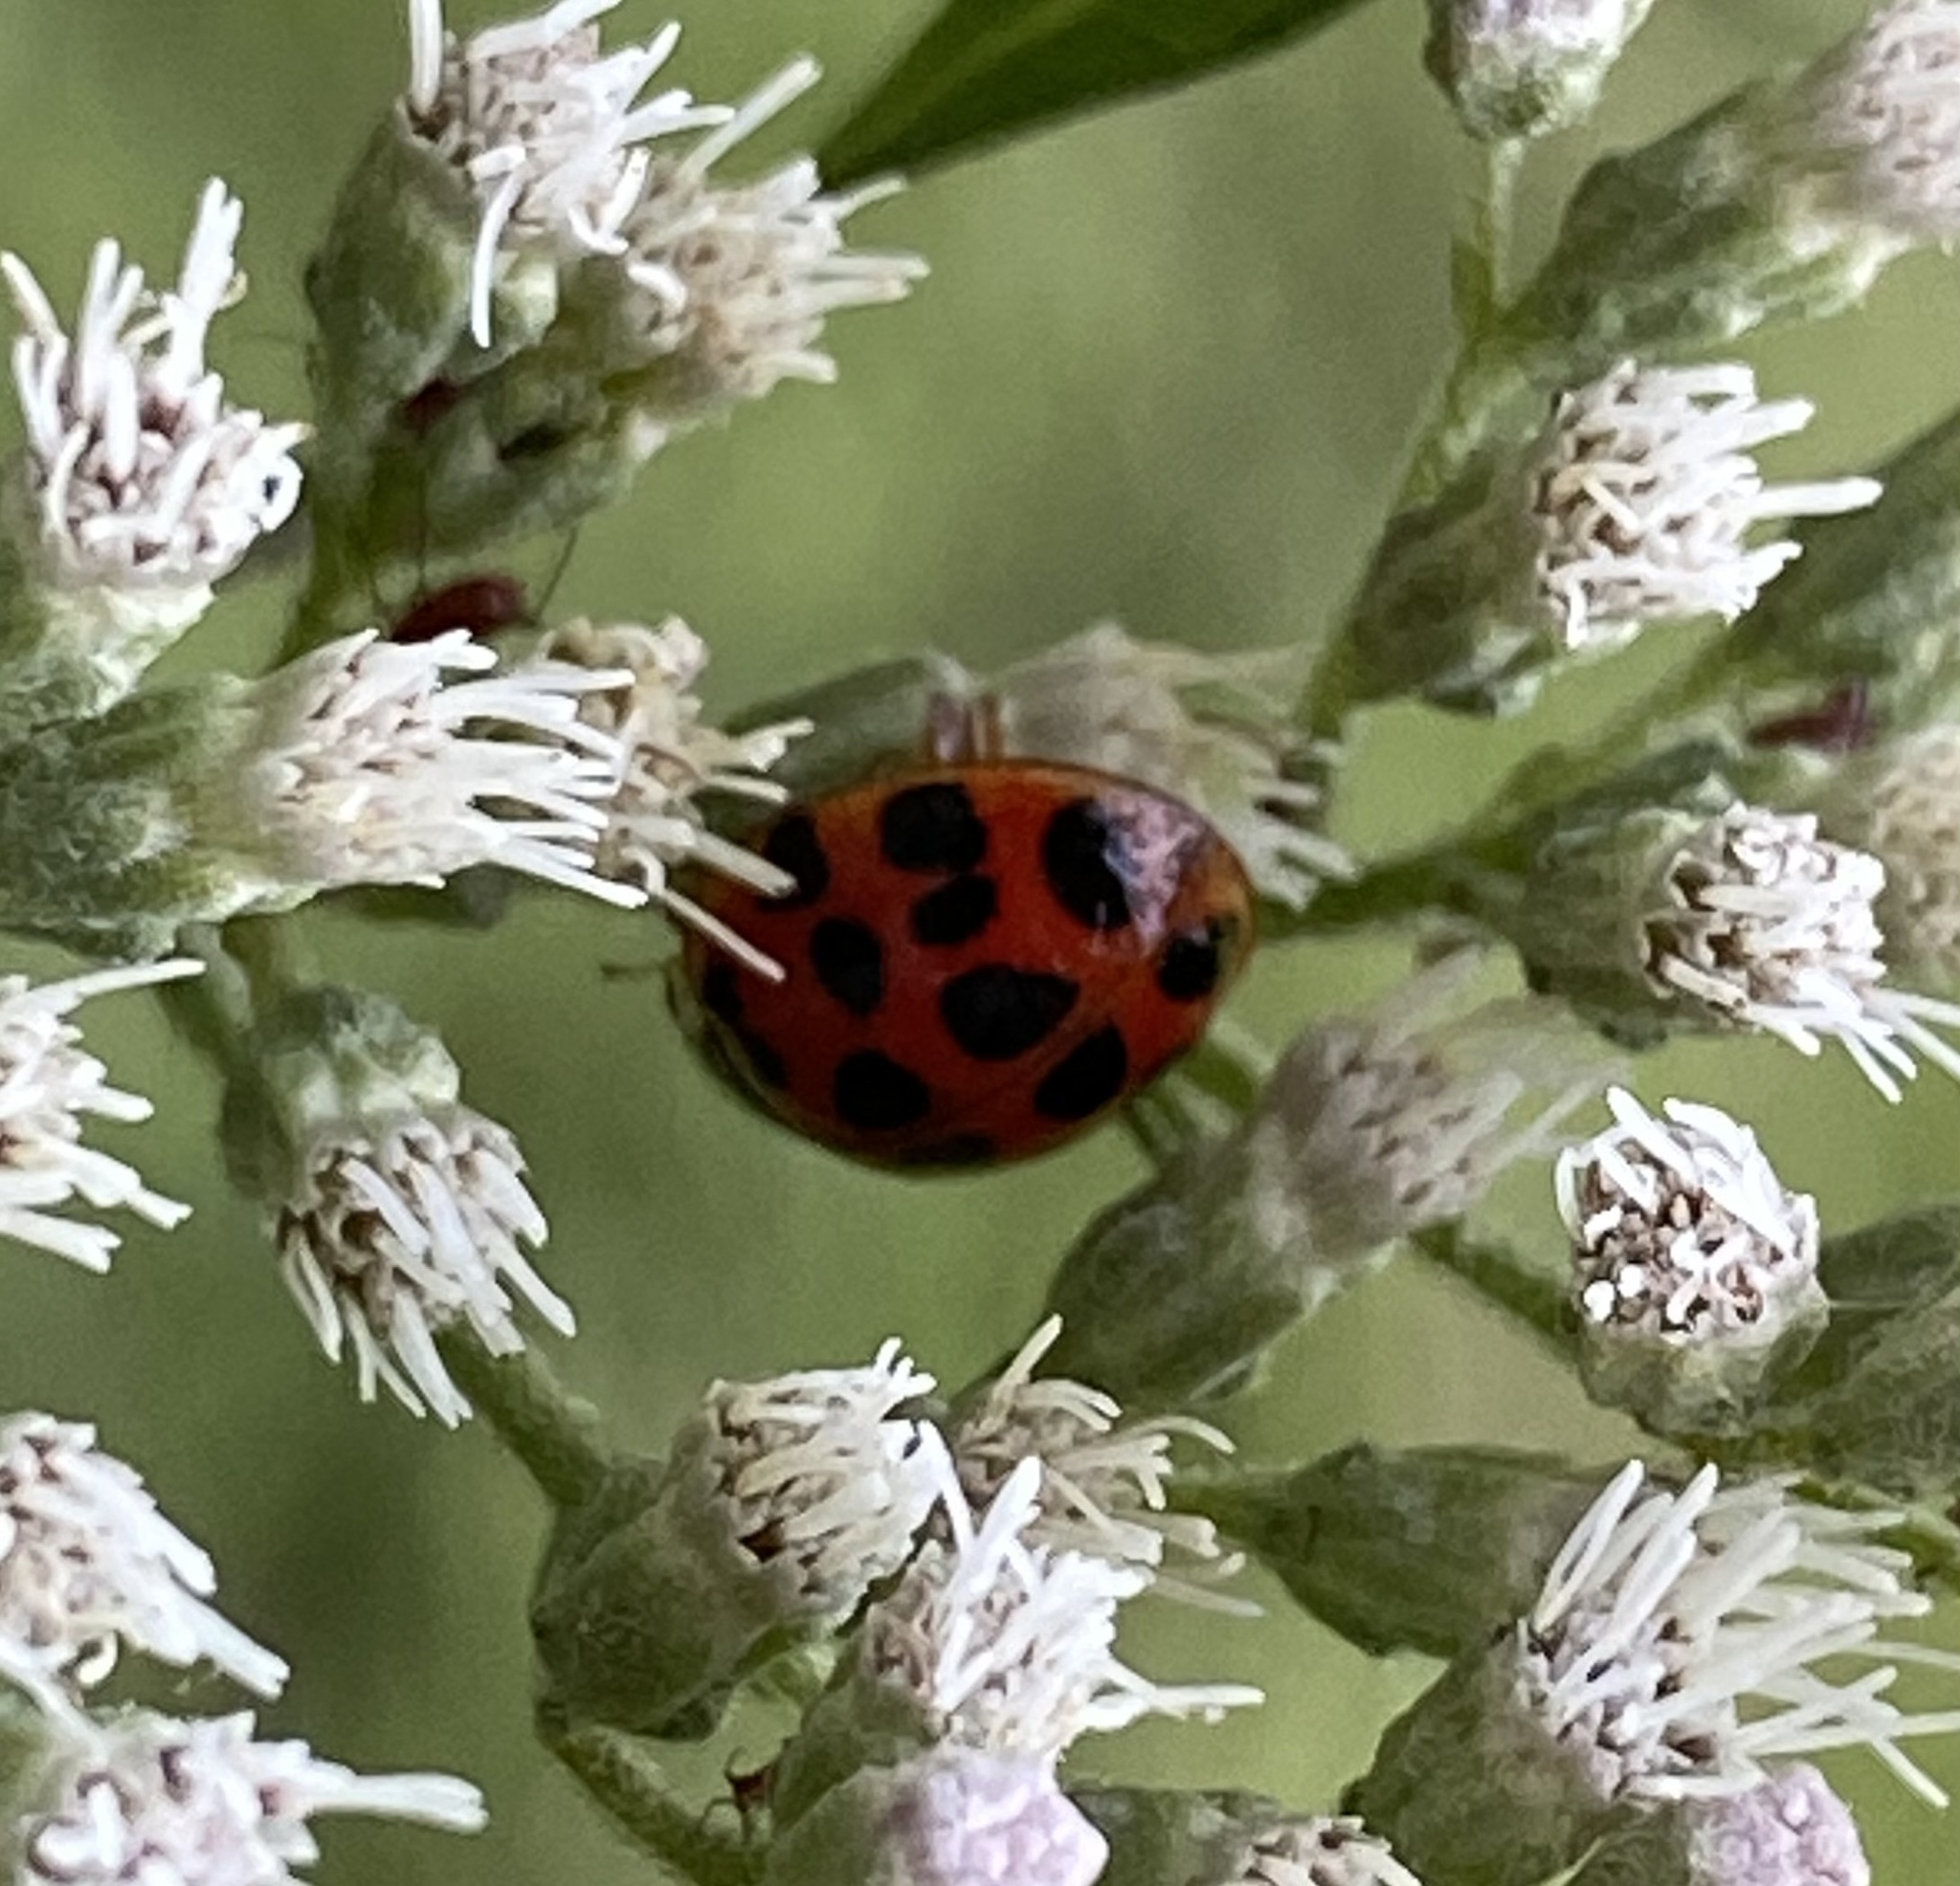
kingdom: Animalia
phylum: Arthropoda
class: Insecta
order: Coleoptera
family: Coccinellidae
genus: Harmonia
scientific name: Harmonia axyridis
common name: Harlequin ladybird
